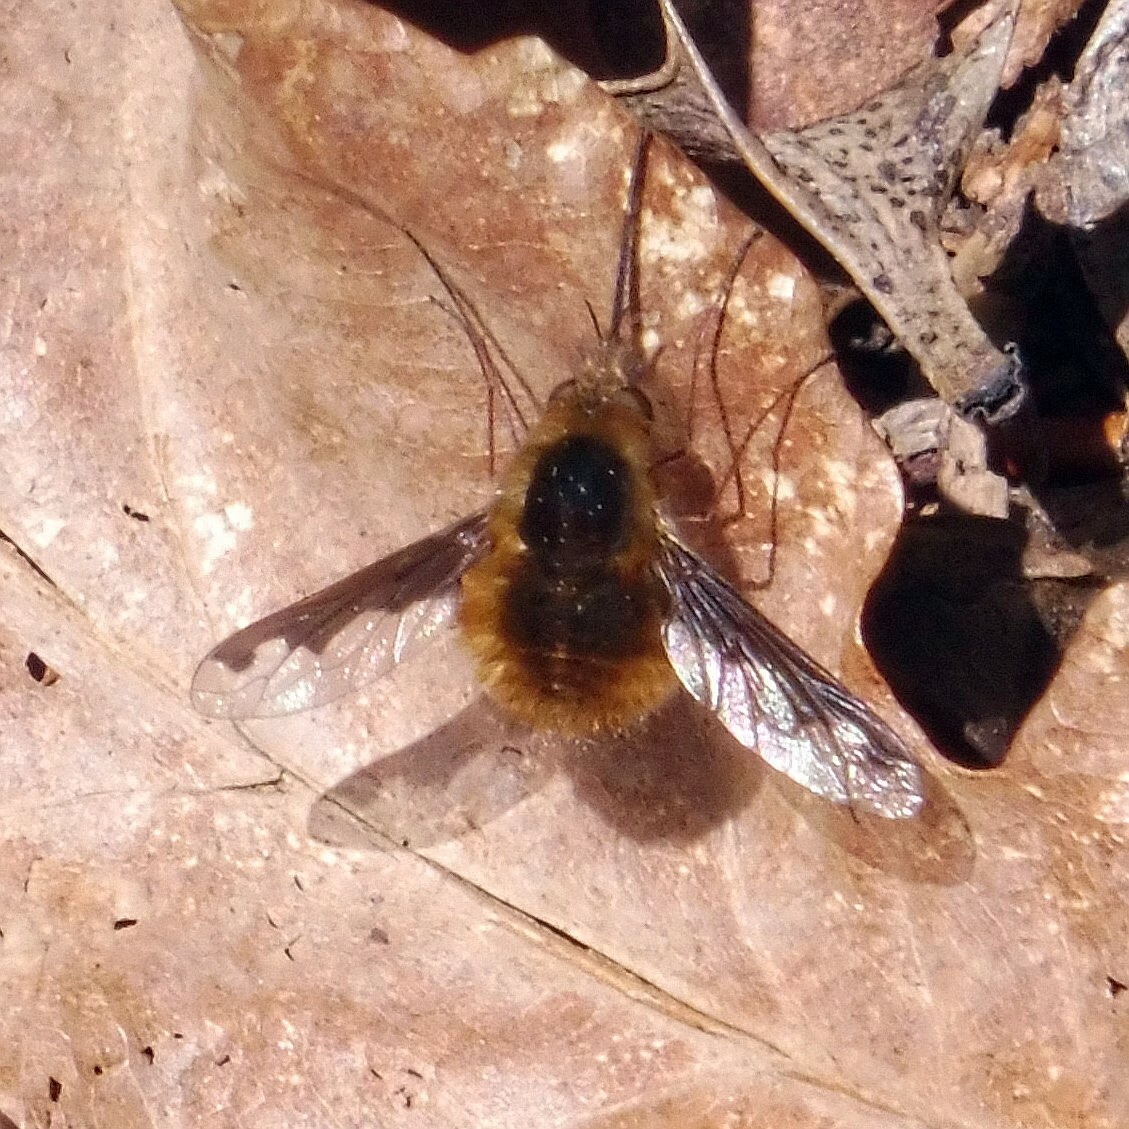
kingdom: Animalia
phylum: Arthropoda
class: Insecta
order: Diptera
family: Bombyliidae
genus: Bombylius
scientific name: Bombylius major
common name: Bee fly
